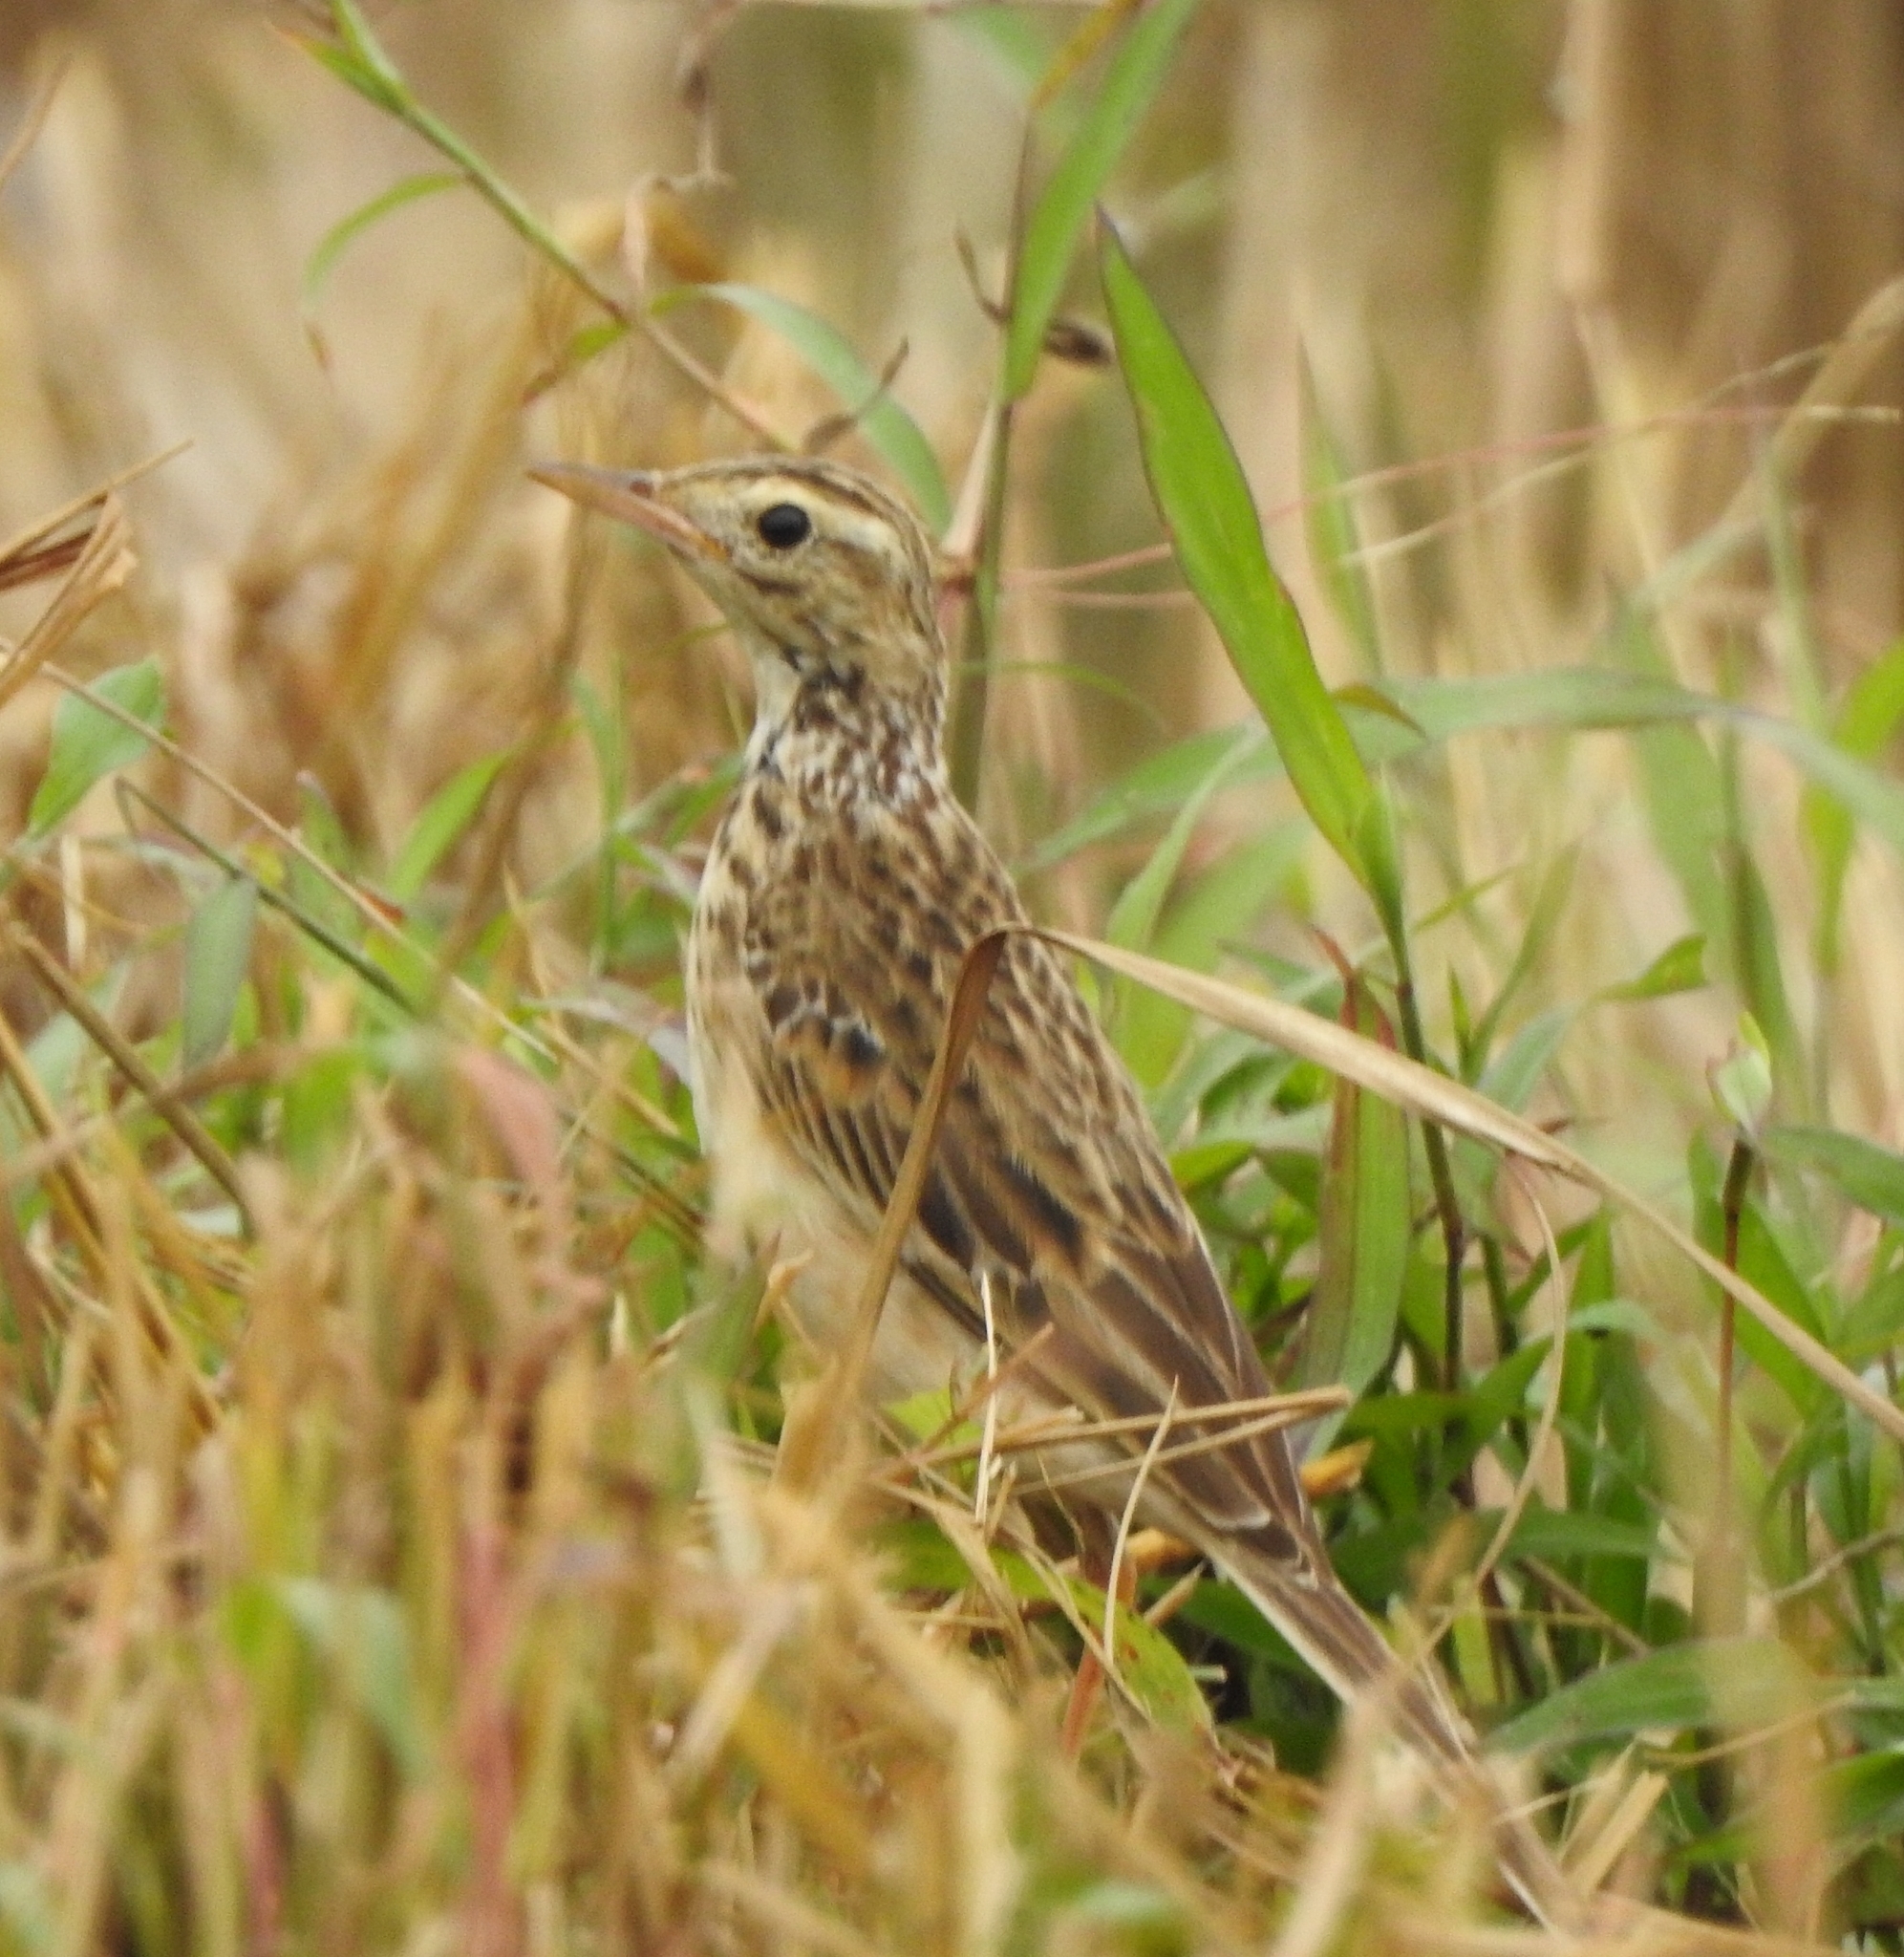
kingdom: Animalia
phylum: Chordata
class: Aves
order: Passeriformes
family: Motacillidae
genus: Anthus
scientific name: Anthus richardi
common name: Richard's pipit
